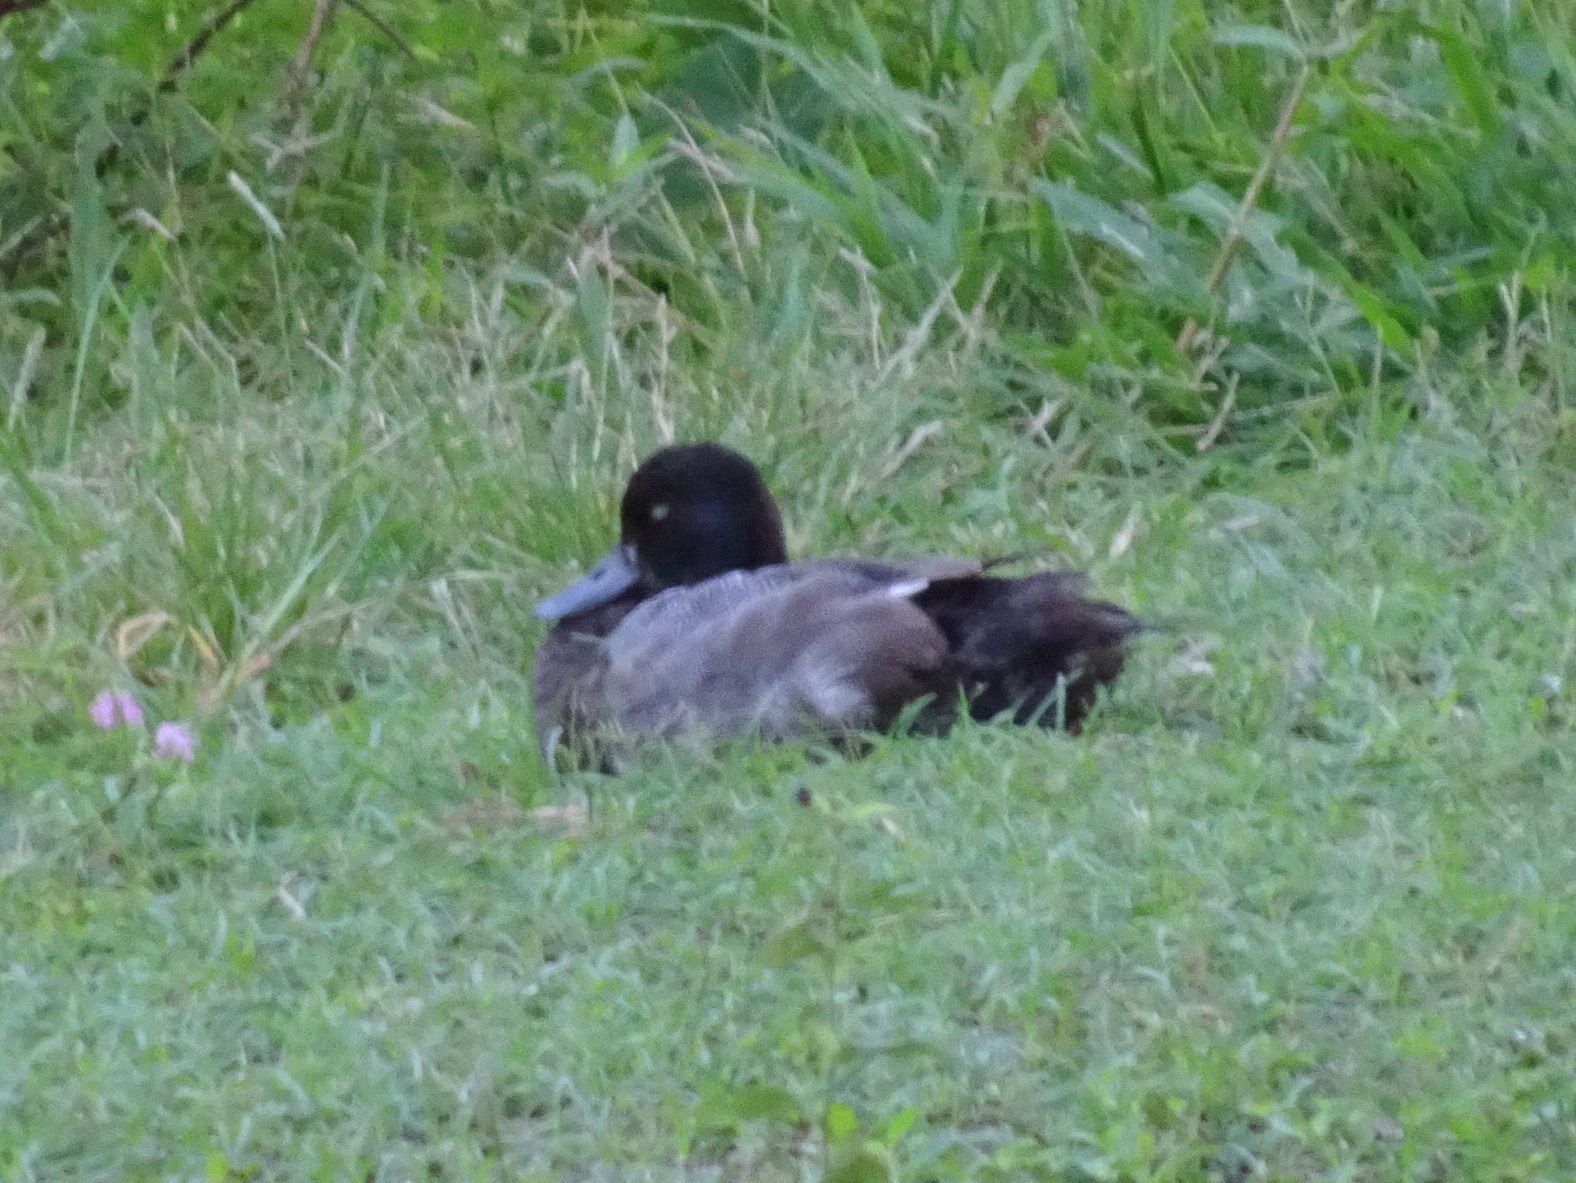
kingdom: Animalia
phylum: Chordata
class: Aves
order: Anseriformes
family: Anatidae
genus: Aythya
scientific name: Aythya affinis
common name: Lesser scaup
